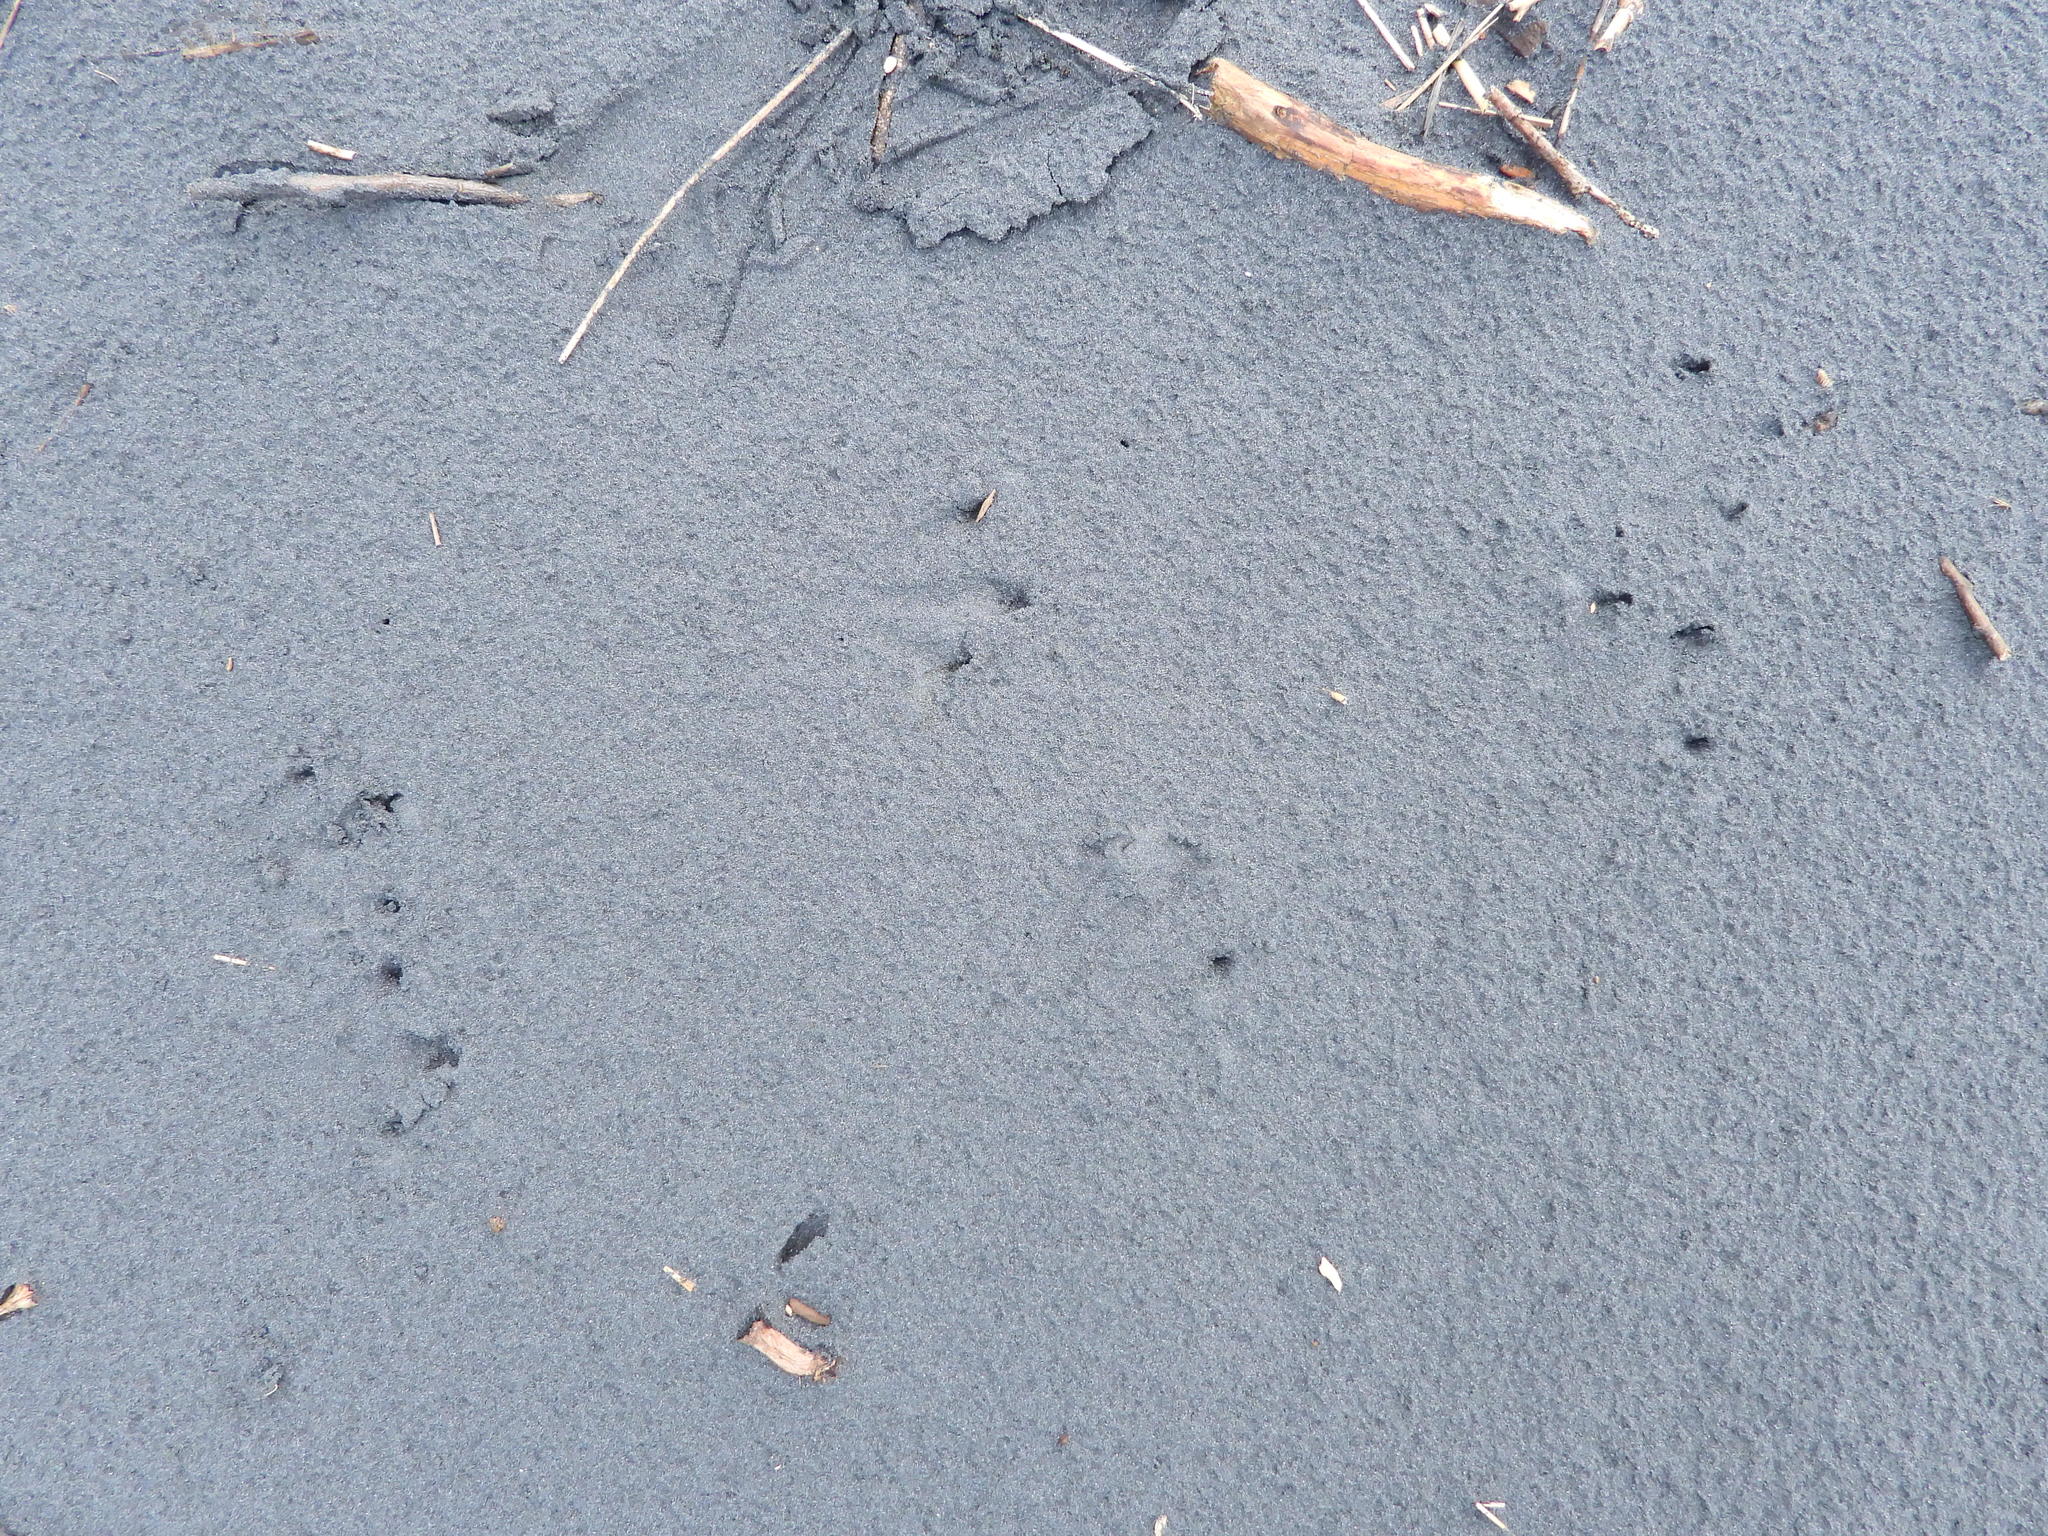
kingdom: Animalia
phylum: Chordata
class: Aves
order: Sphenisciformes
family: Spheniscidae
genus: Eudyptula
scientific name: Eudyptula minor
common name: Little penguin
